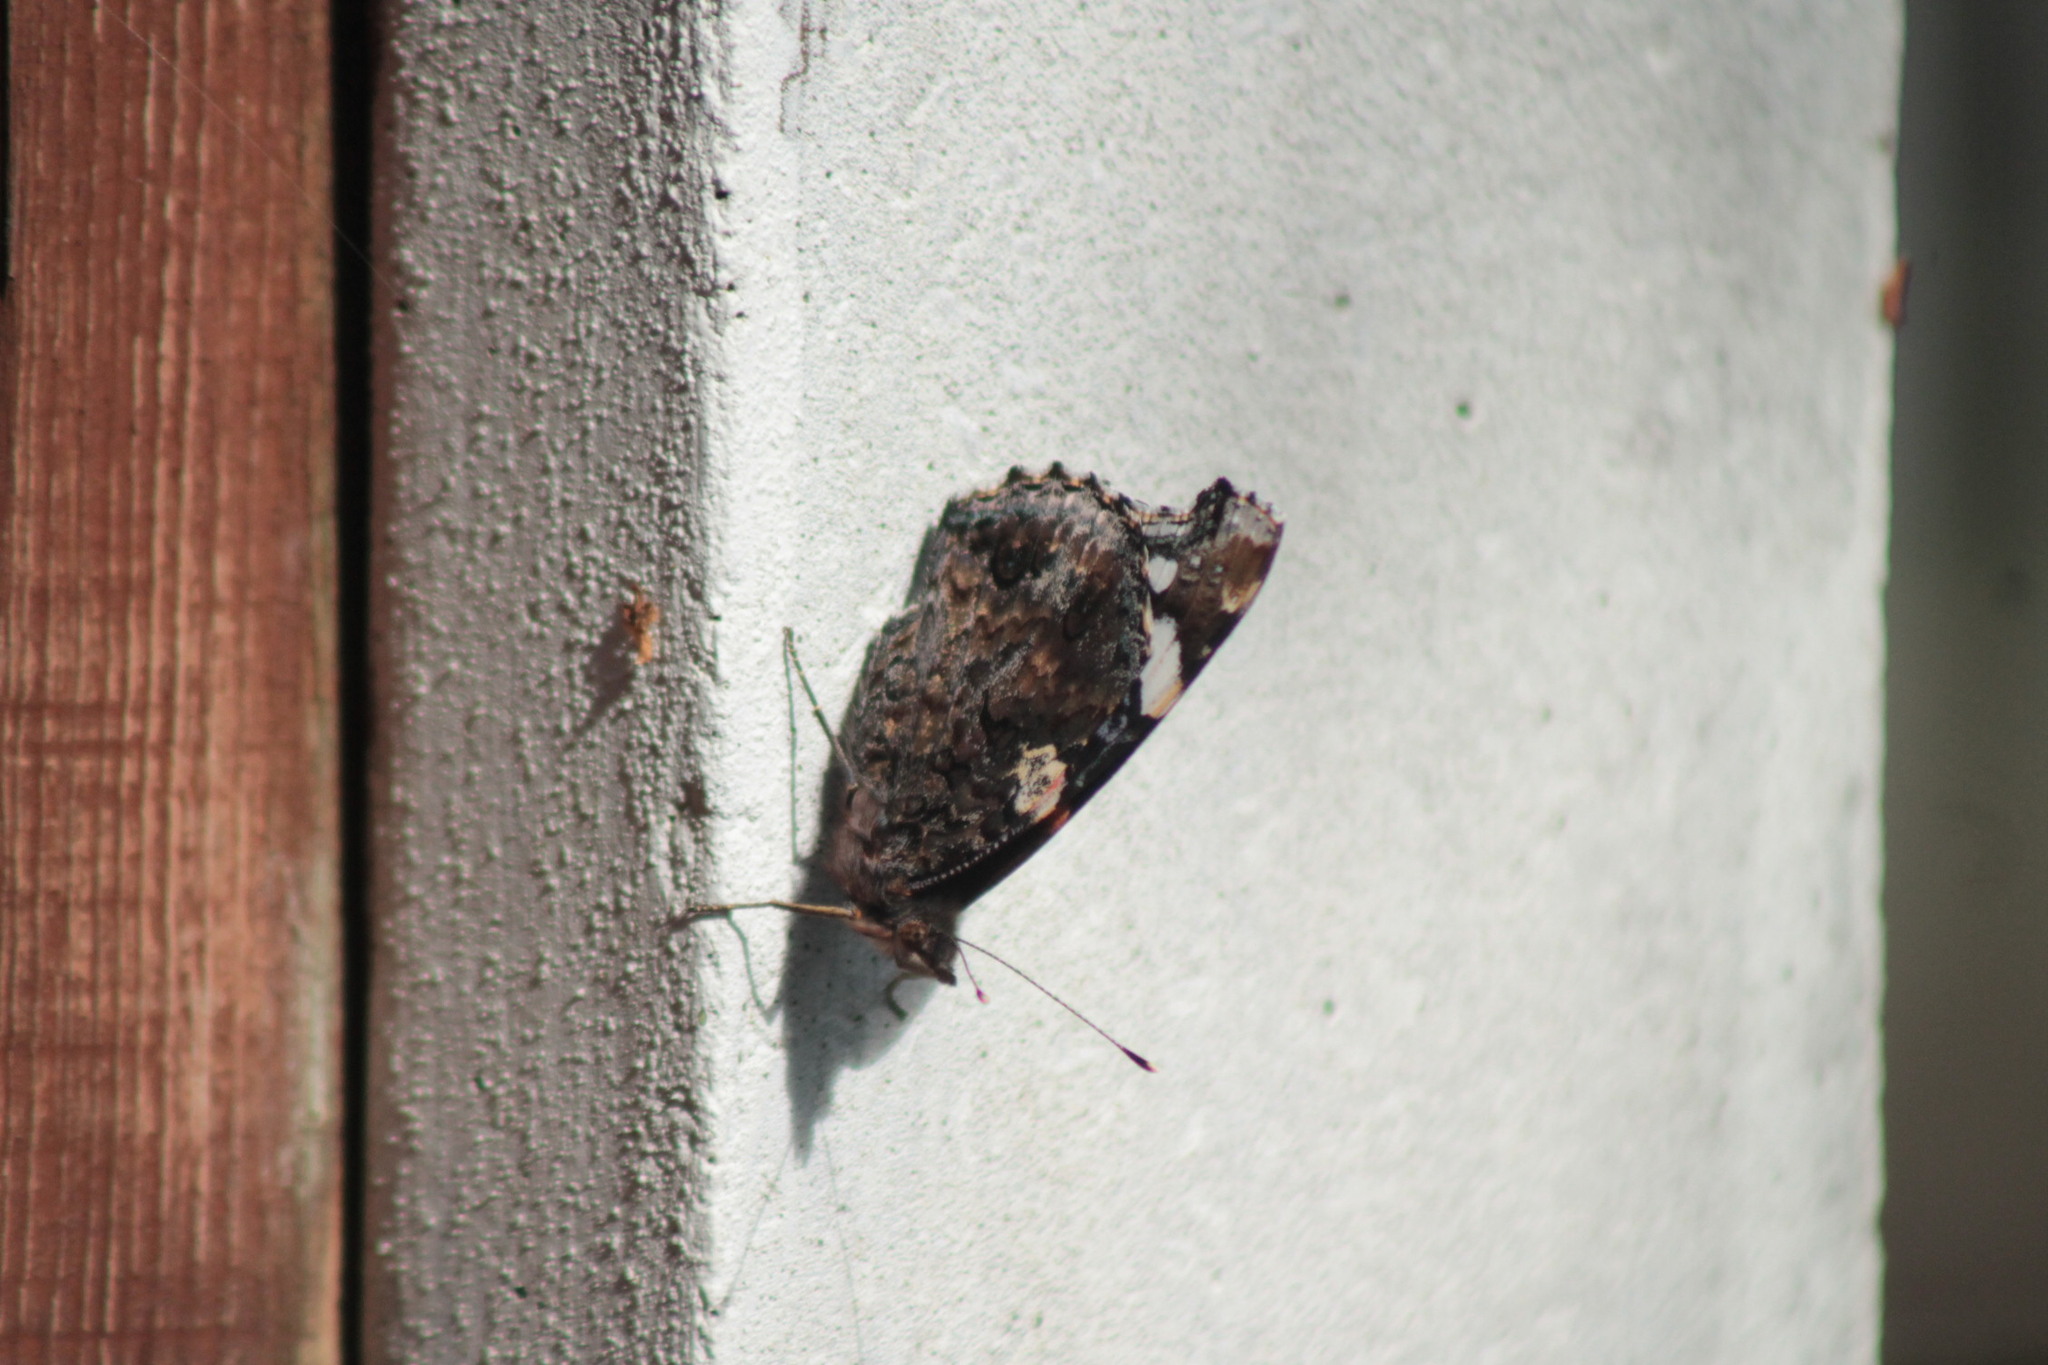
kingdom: Animalia
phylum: Arthropoda
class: Insecta
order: Lepidoptera
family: Nymphalidae
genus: Vanessa
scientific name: Vanessa atalanta
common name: Red admiral
